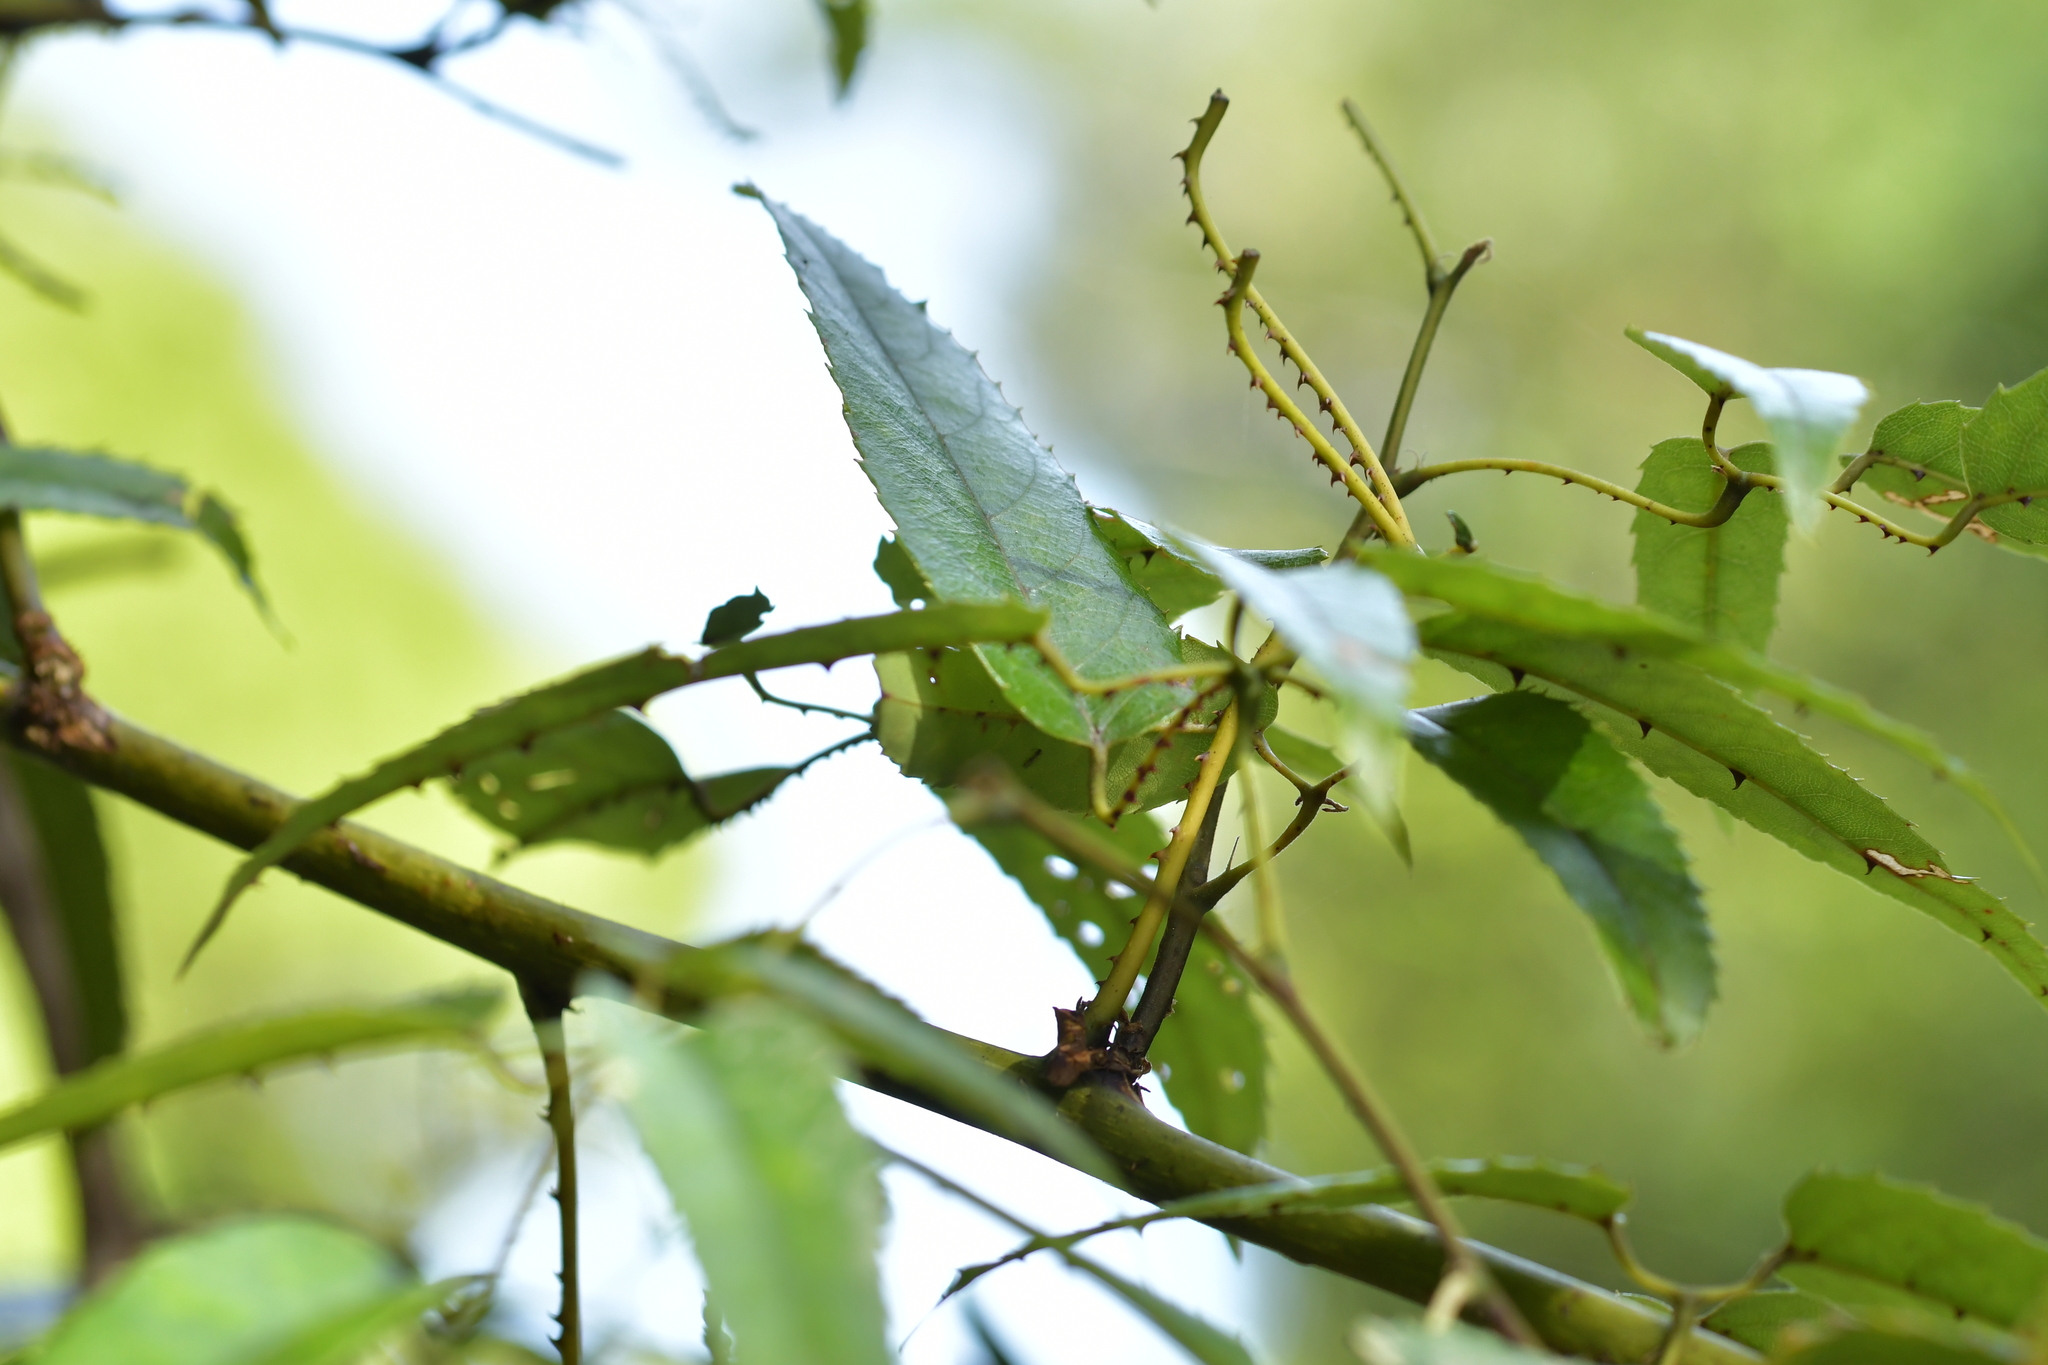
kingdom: Plantae
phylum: Tracheophyta
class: Magnoliopsida
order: Rosales
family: Rosaceae
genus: Rubus
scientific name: Rubus cissoides
